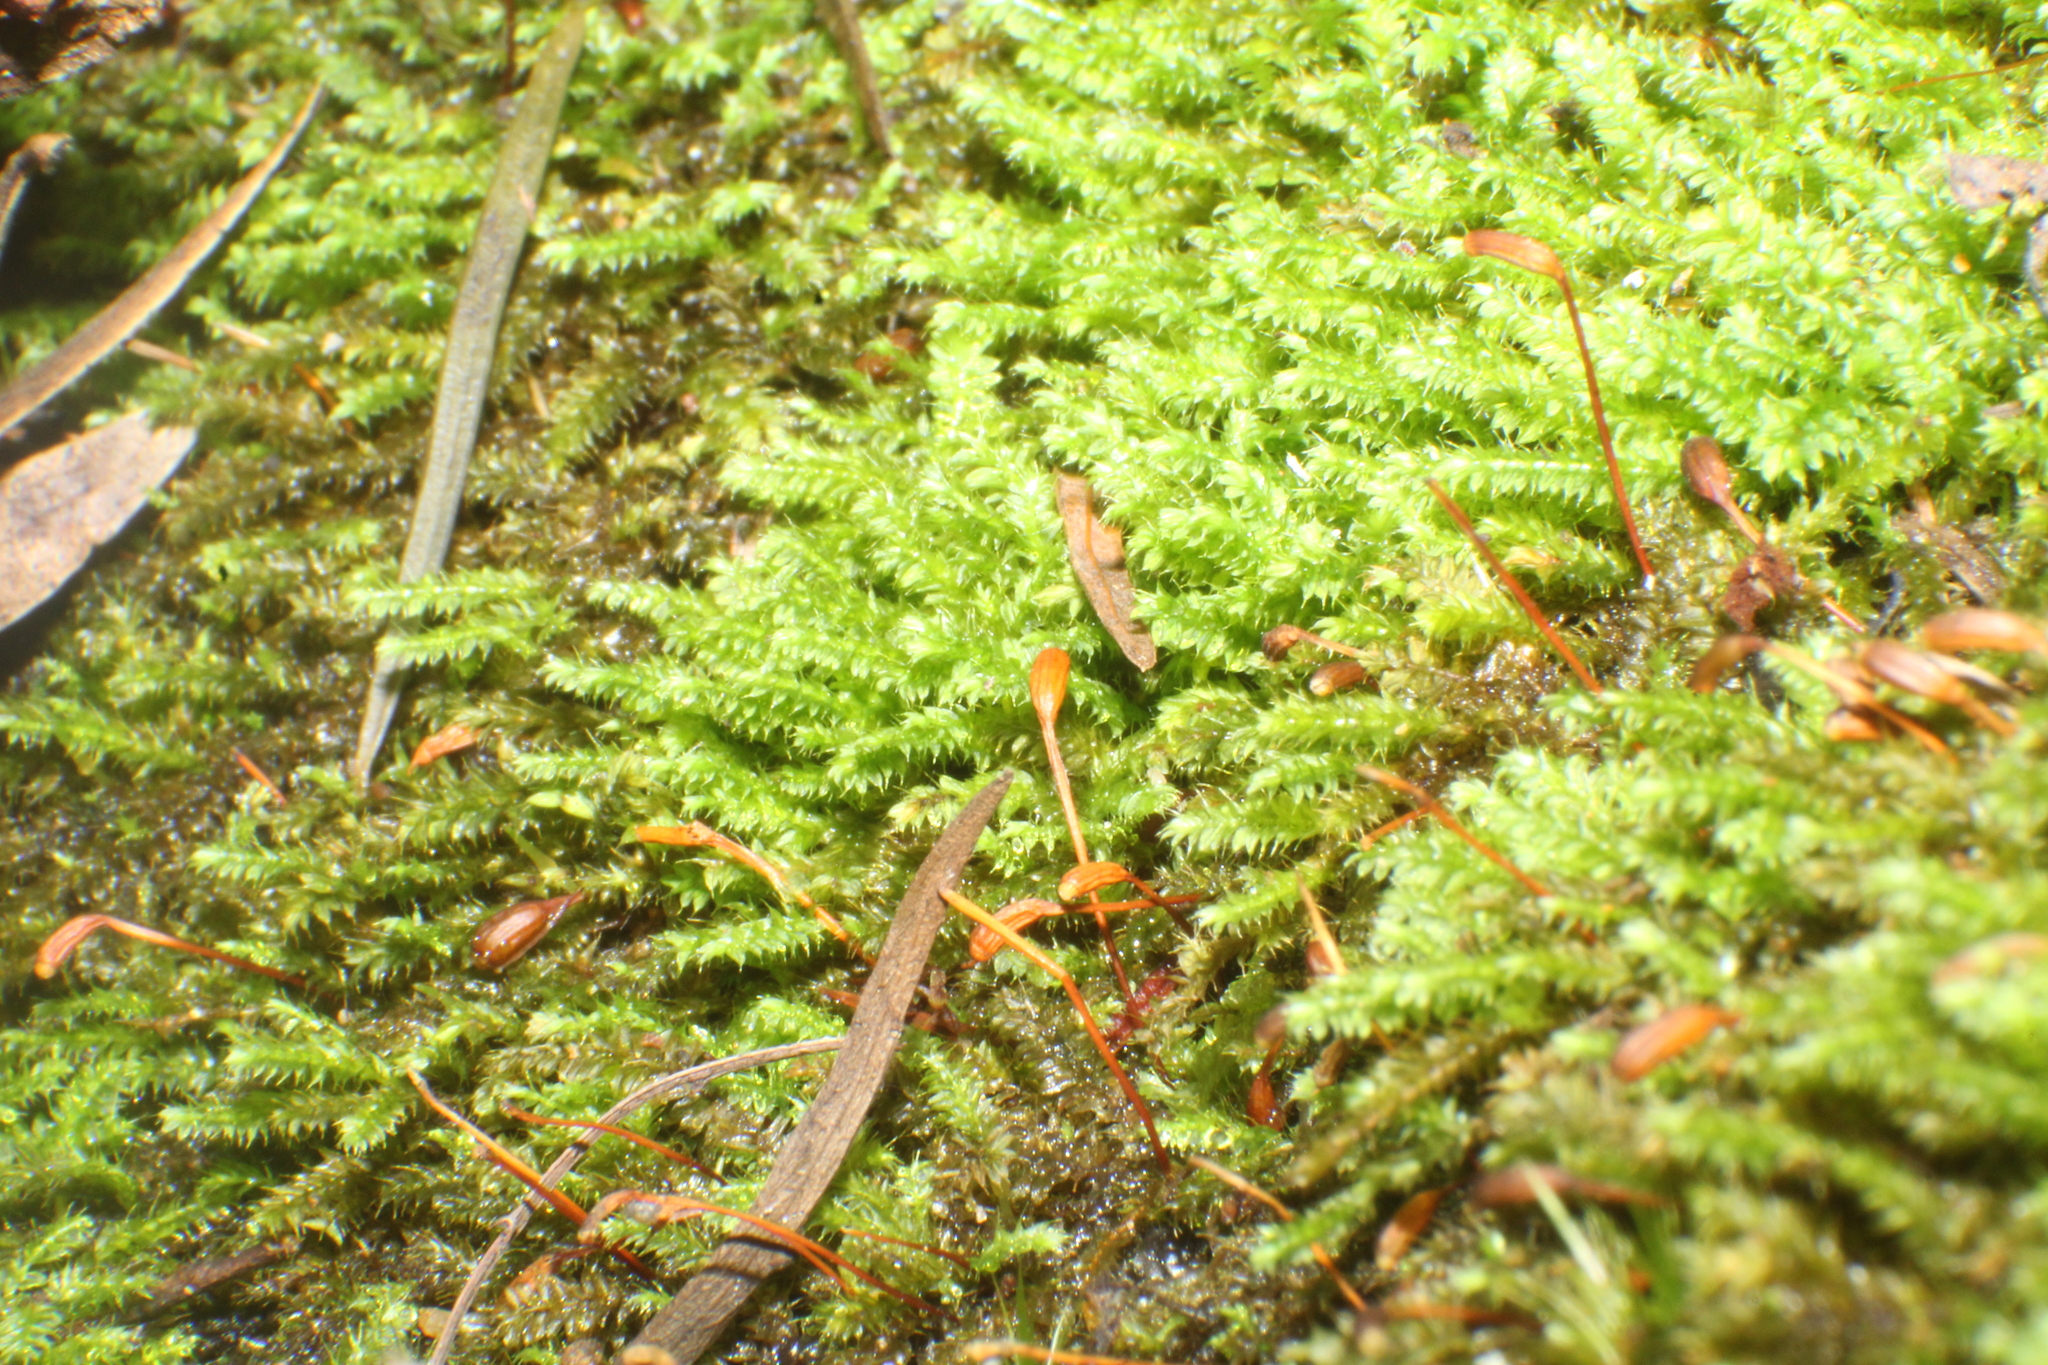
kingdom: Plantae
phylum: Bryophyta
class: Bryopsida
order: Hypnodendrales
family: Racopilaceae
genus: Racopilum
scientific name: Racopilum cuspidigerum
